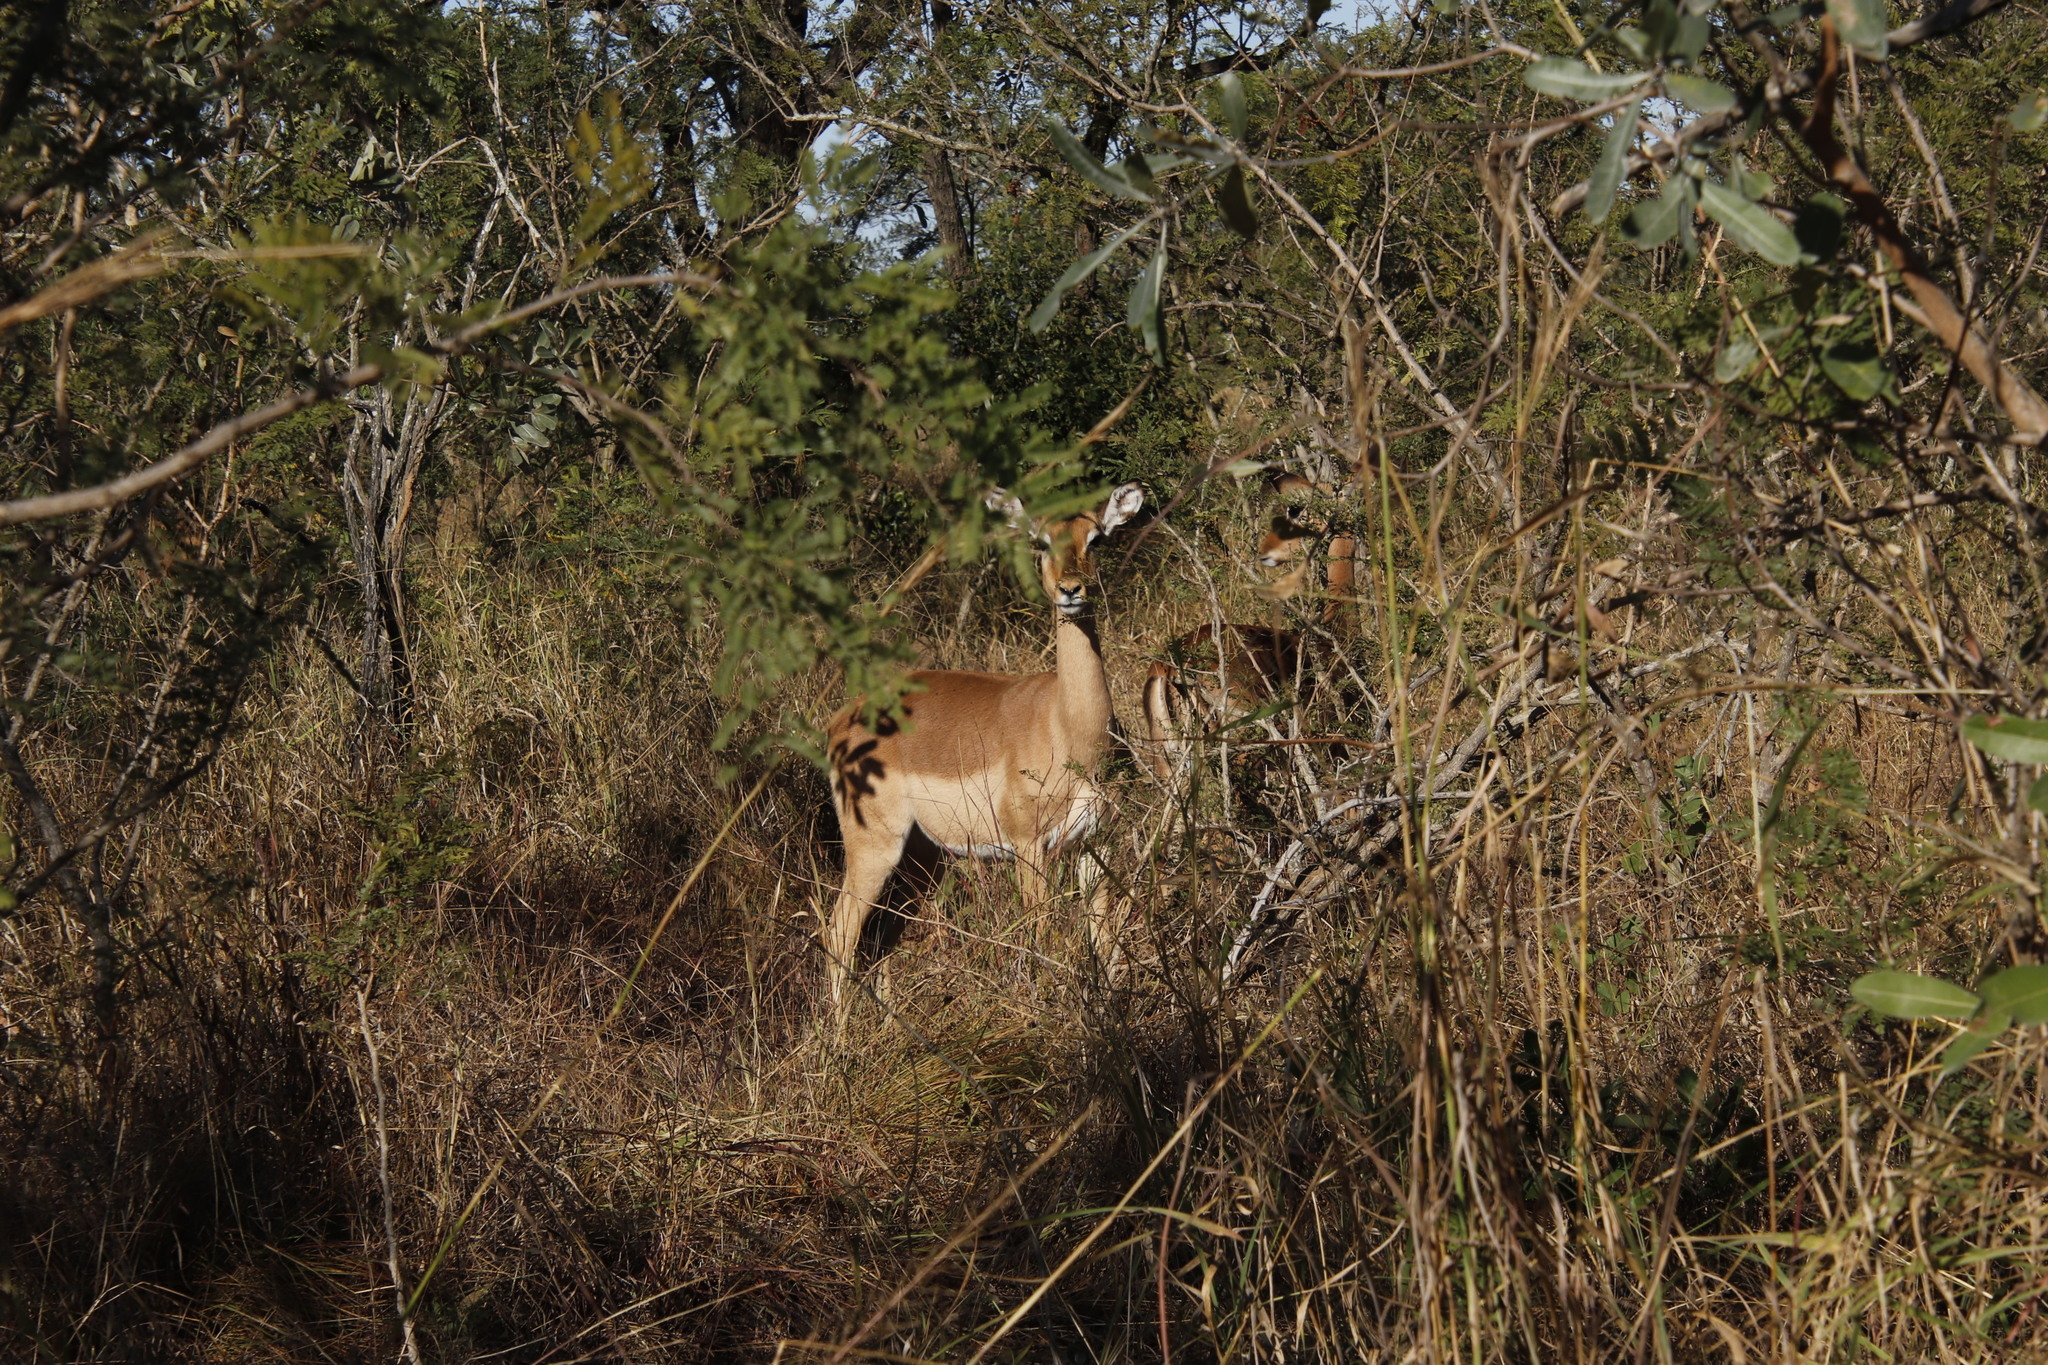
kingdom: Animalia
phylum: Chordata
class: Mammalia
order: Artiodactyla
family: Bovidae
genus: Aepyceros
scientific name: Aepyceros melampus
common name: Impala
